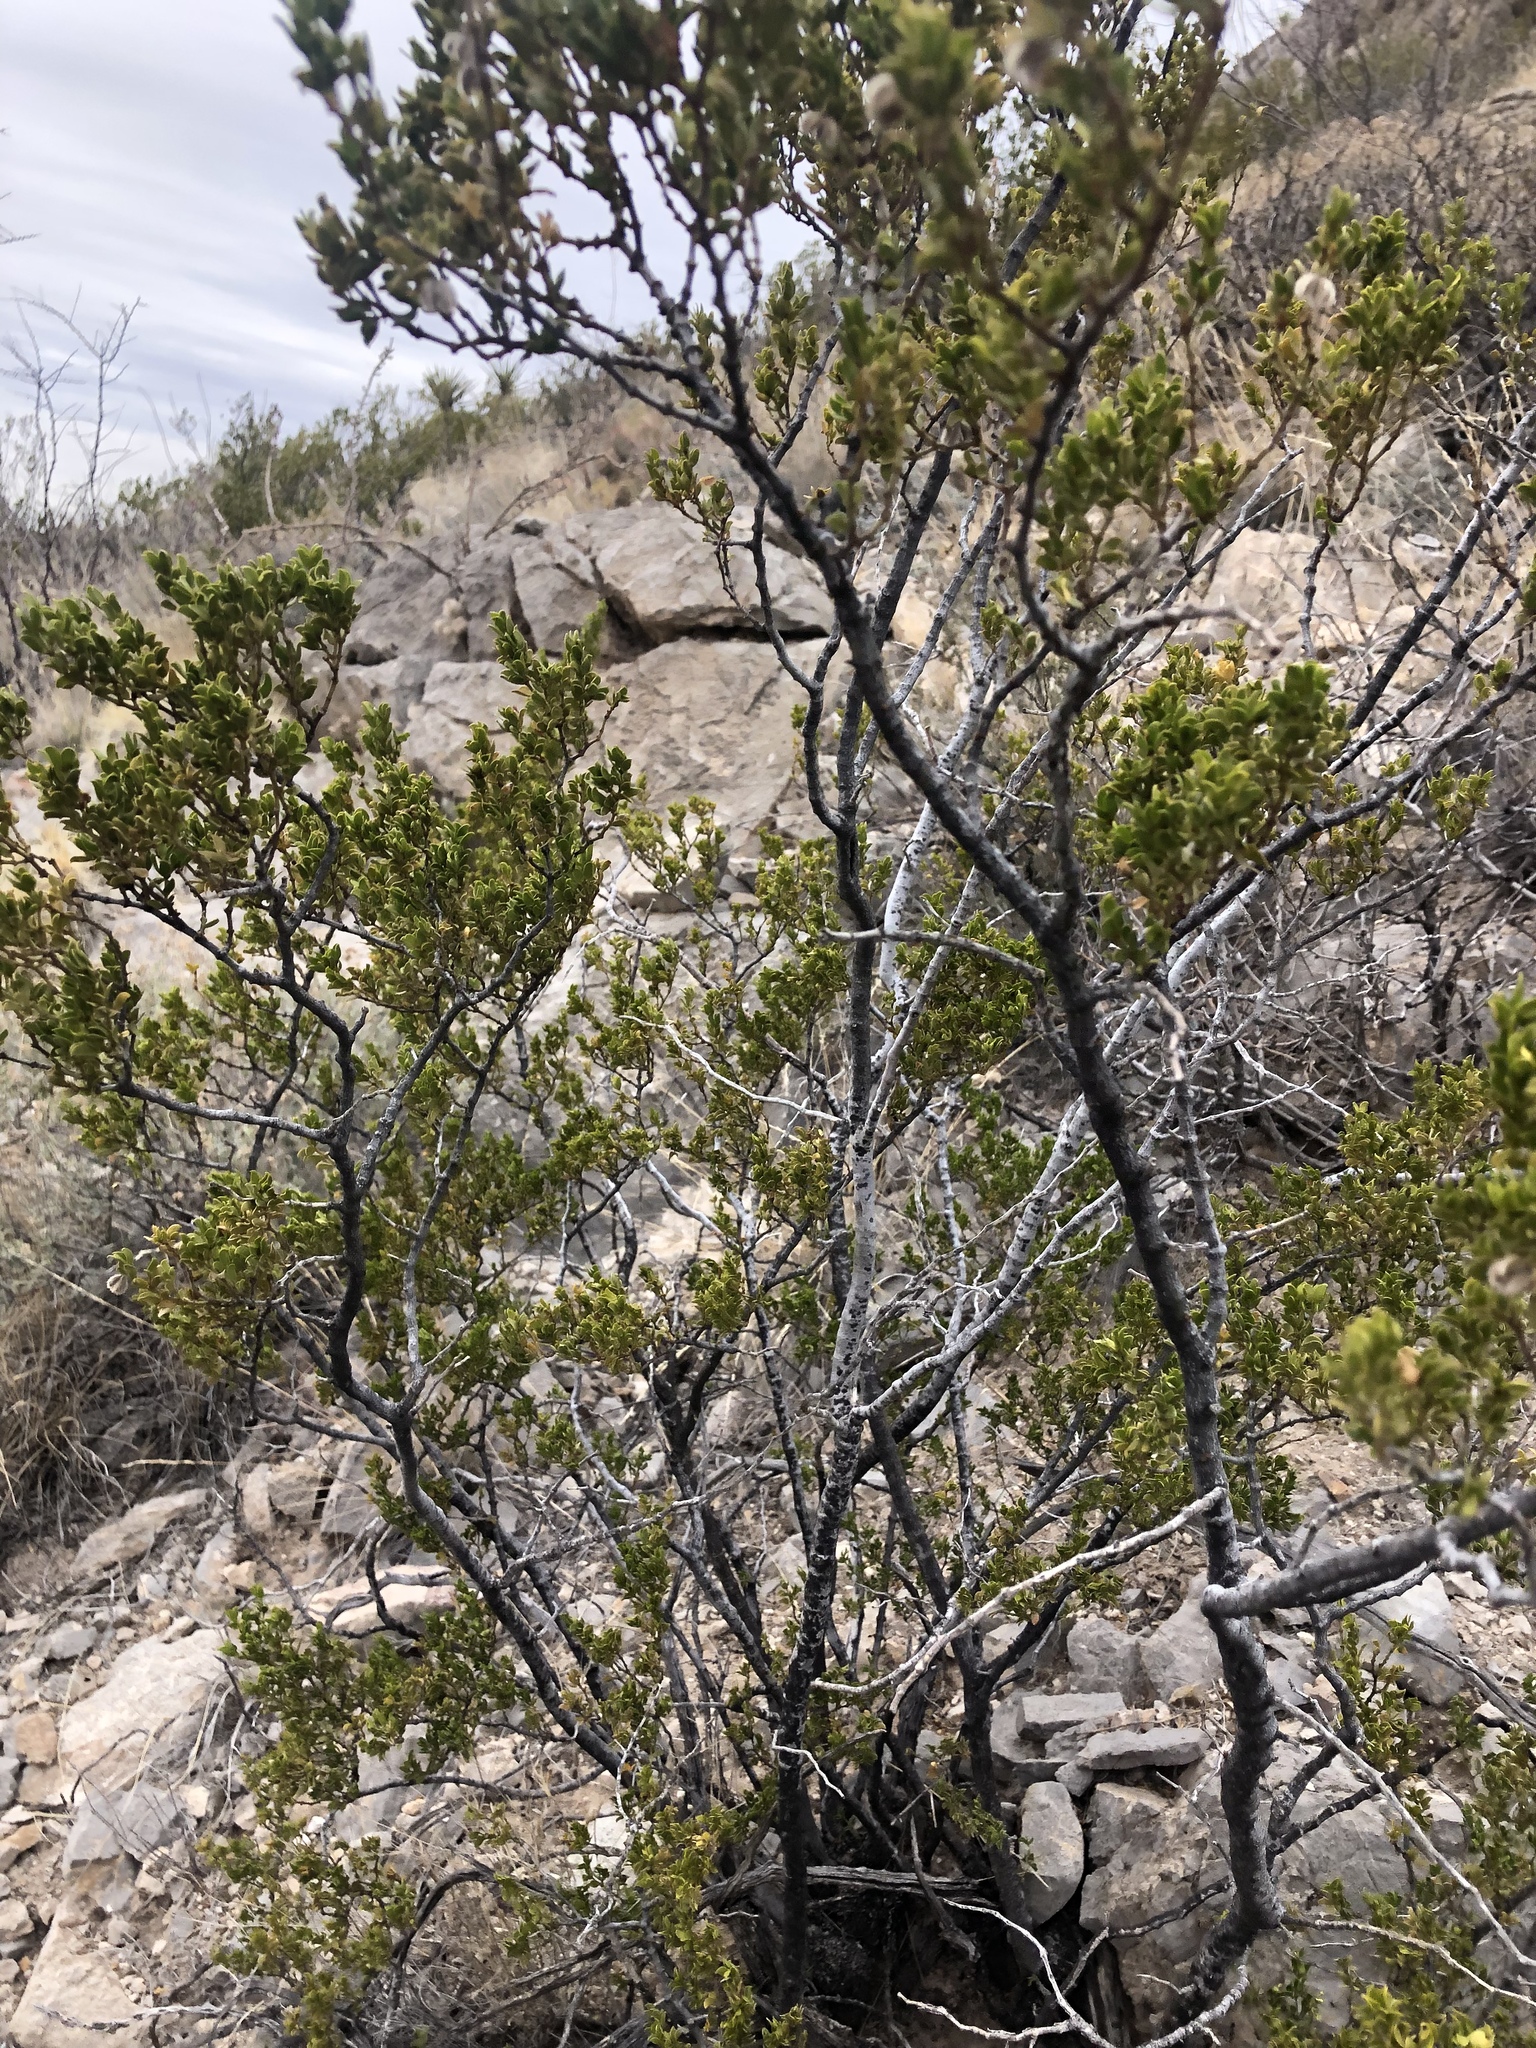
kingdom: Plantae
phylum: Tracheophyta
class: Magnoliopsida
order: Zygophyllales
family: Zygophyllaceae
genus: Larrea
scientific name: Larrea tridentata
